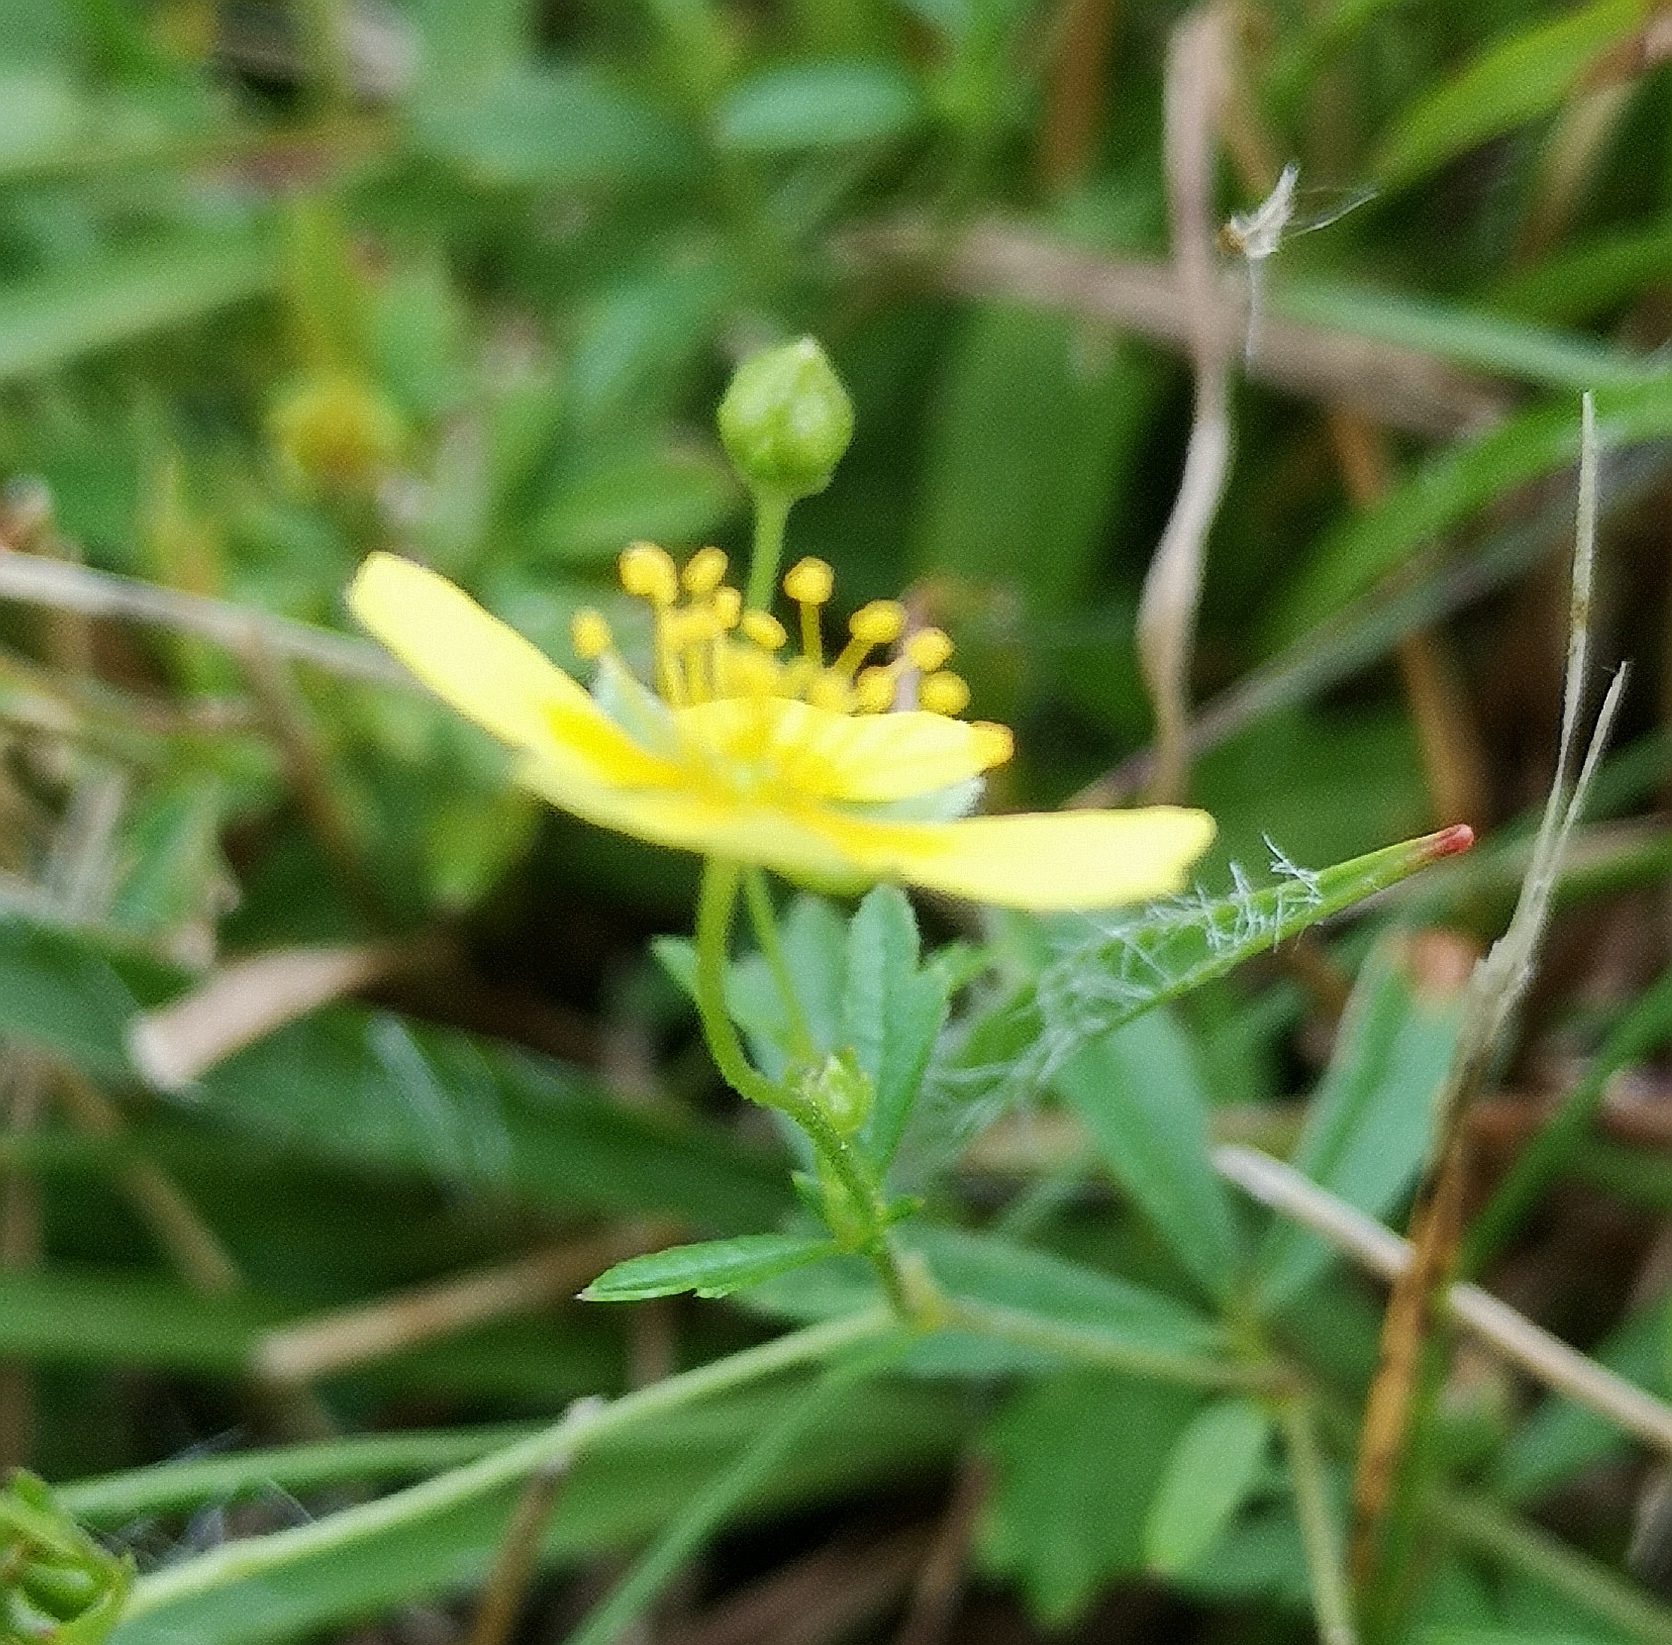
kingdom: Plantae
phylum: Tracheophyta
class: Magnoliopsida
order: Rosales
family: Rosaceae
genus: Potentilla
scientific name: Potentilla erecta
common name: Tormentil
